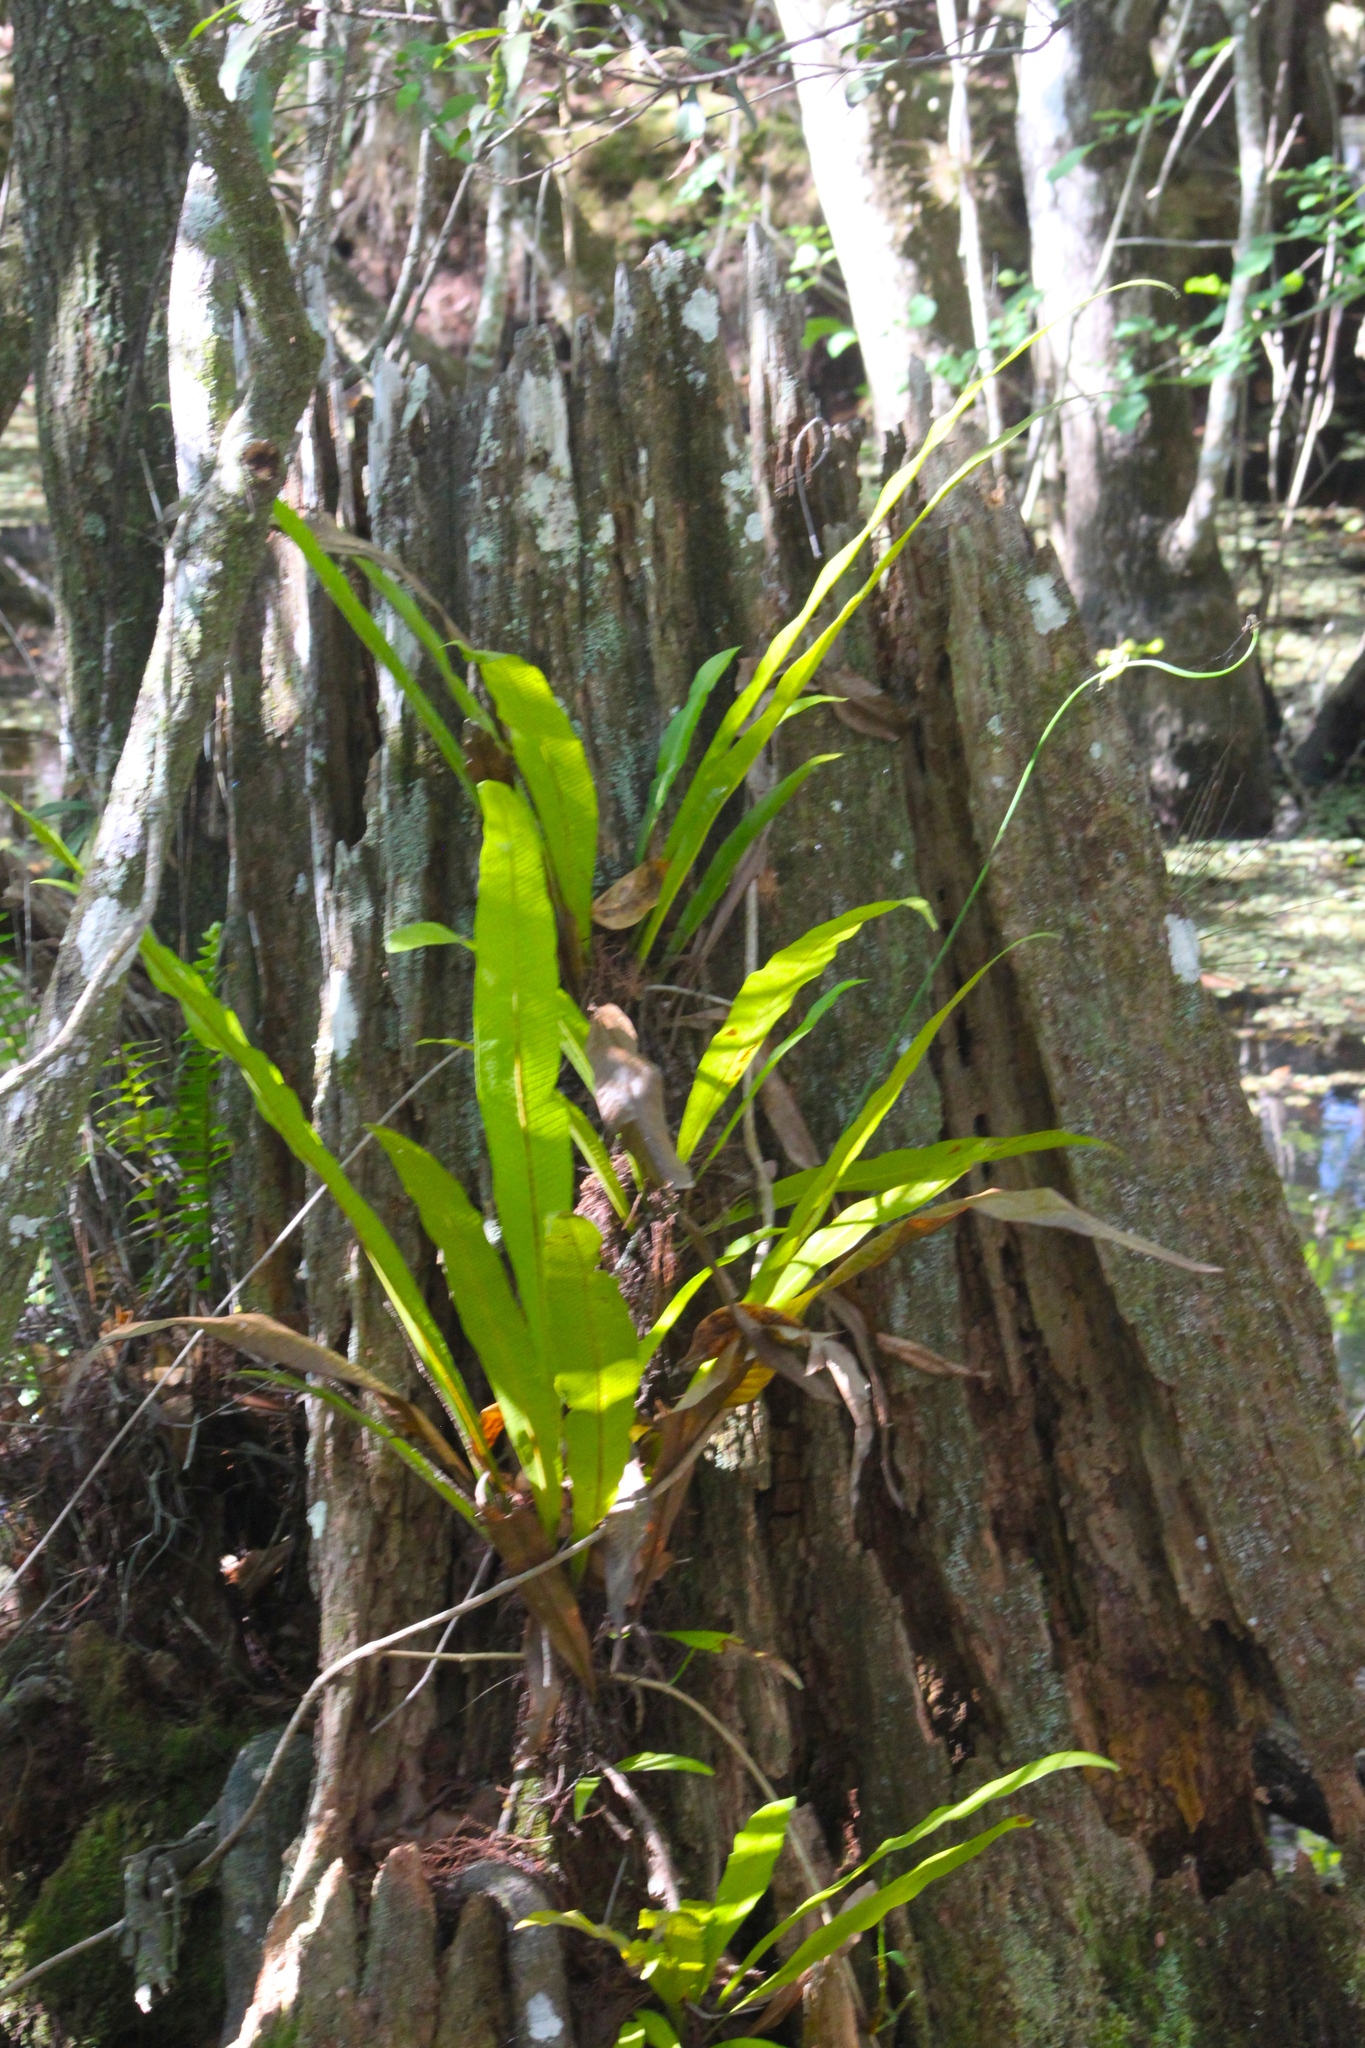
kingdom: Plantae
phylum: Tracheophyta
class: Polypodiopsida
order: Polypodiales
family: Polypodiaceae
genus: Campyloneurum
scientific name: Campyloneurum phyllitidis
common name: Cow-tongue fern
